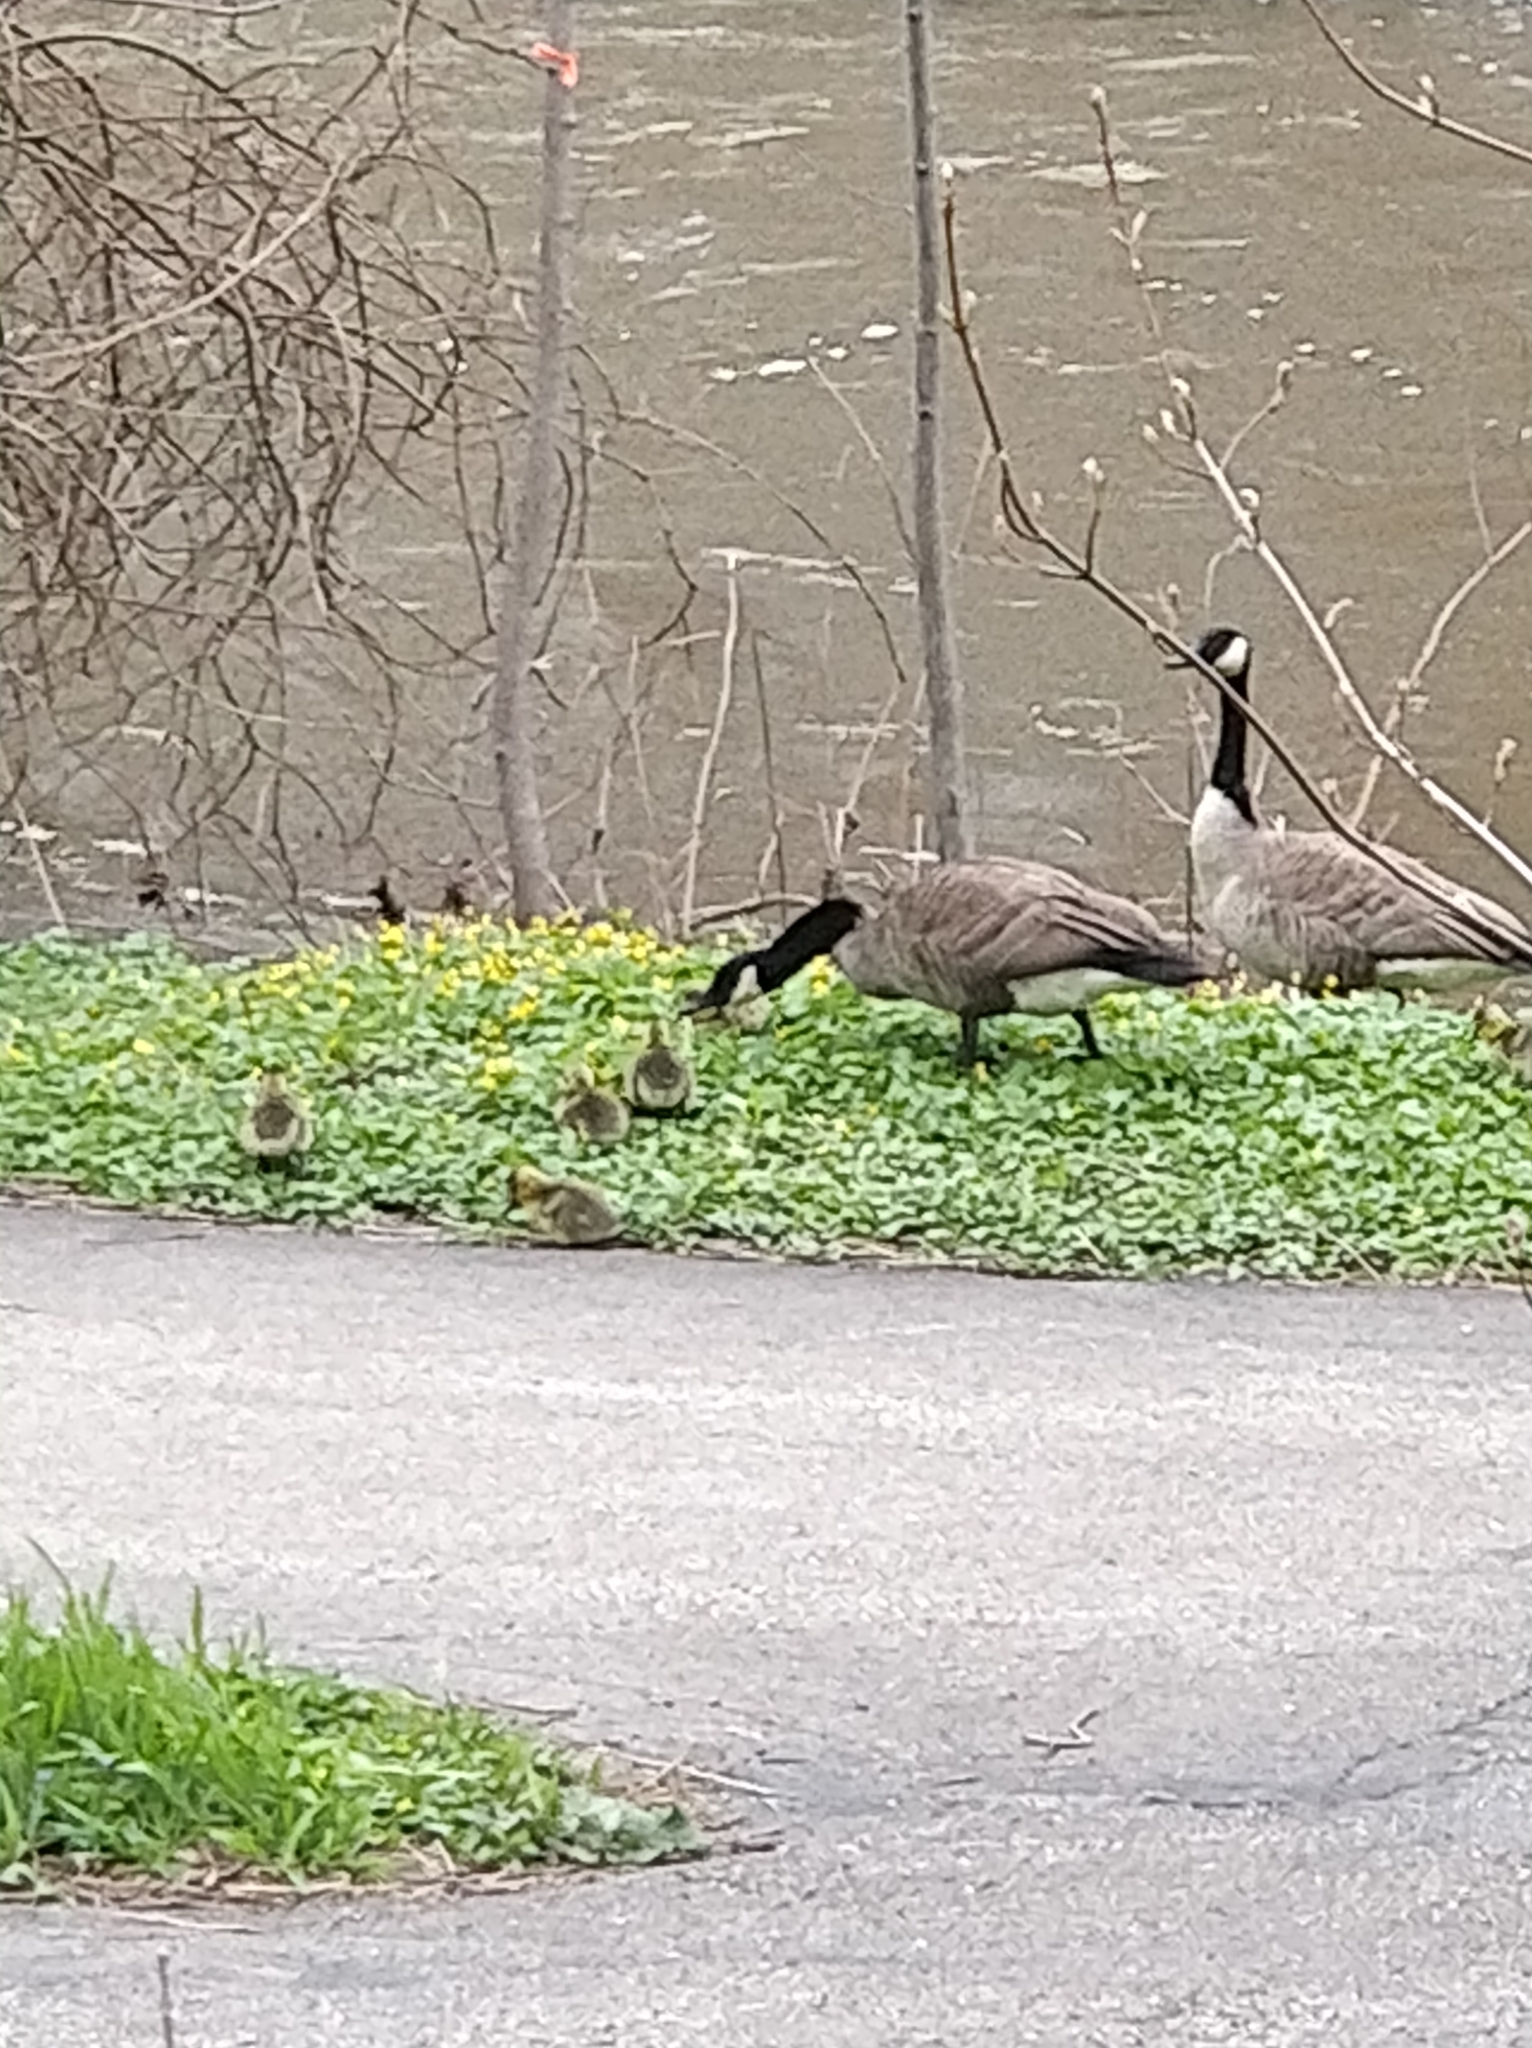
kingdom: Animalia
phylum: Chordata
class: Aves
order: Anseriformes
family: Anatidae
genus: Branta
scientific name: Branta canadensis
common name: Canada goose
